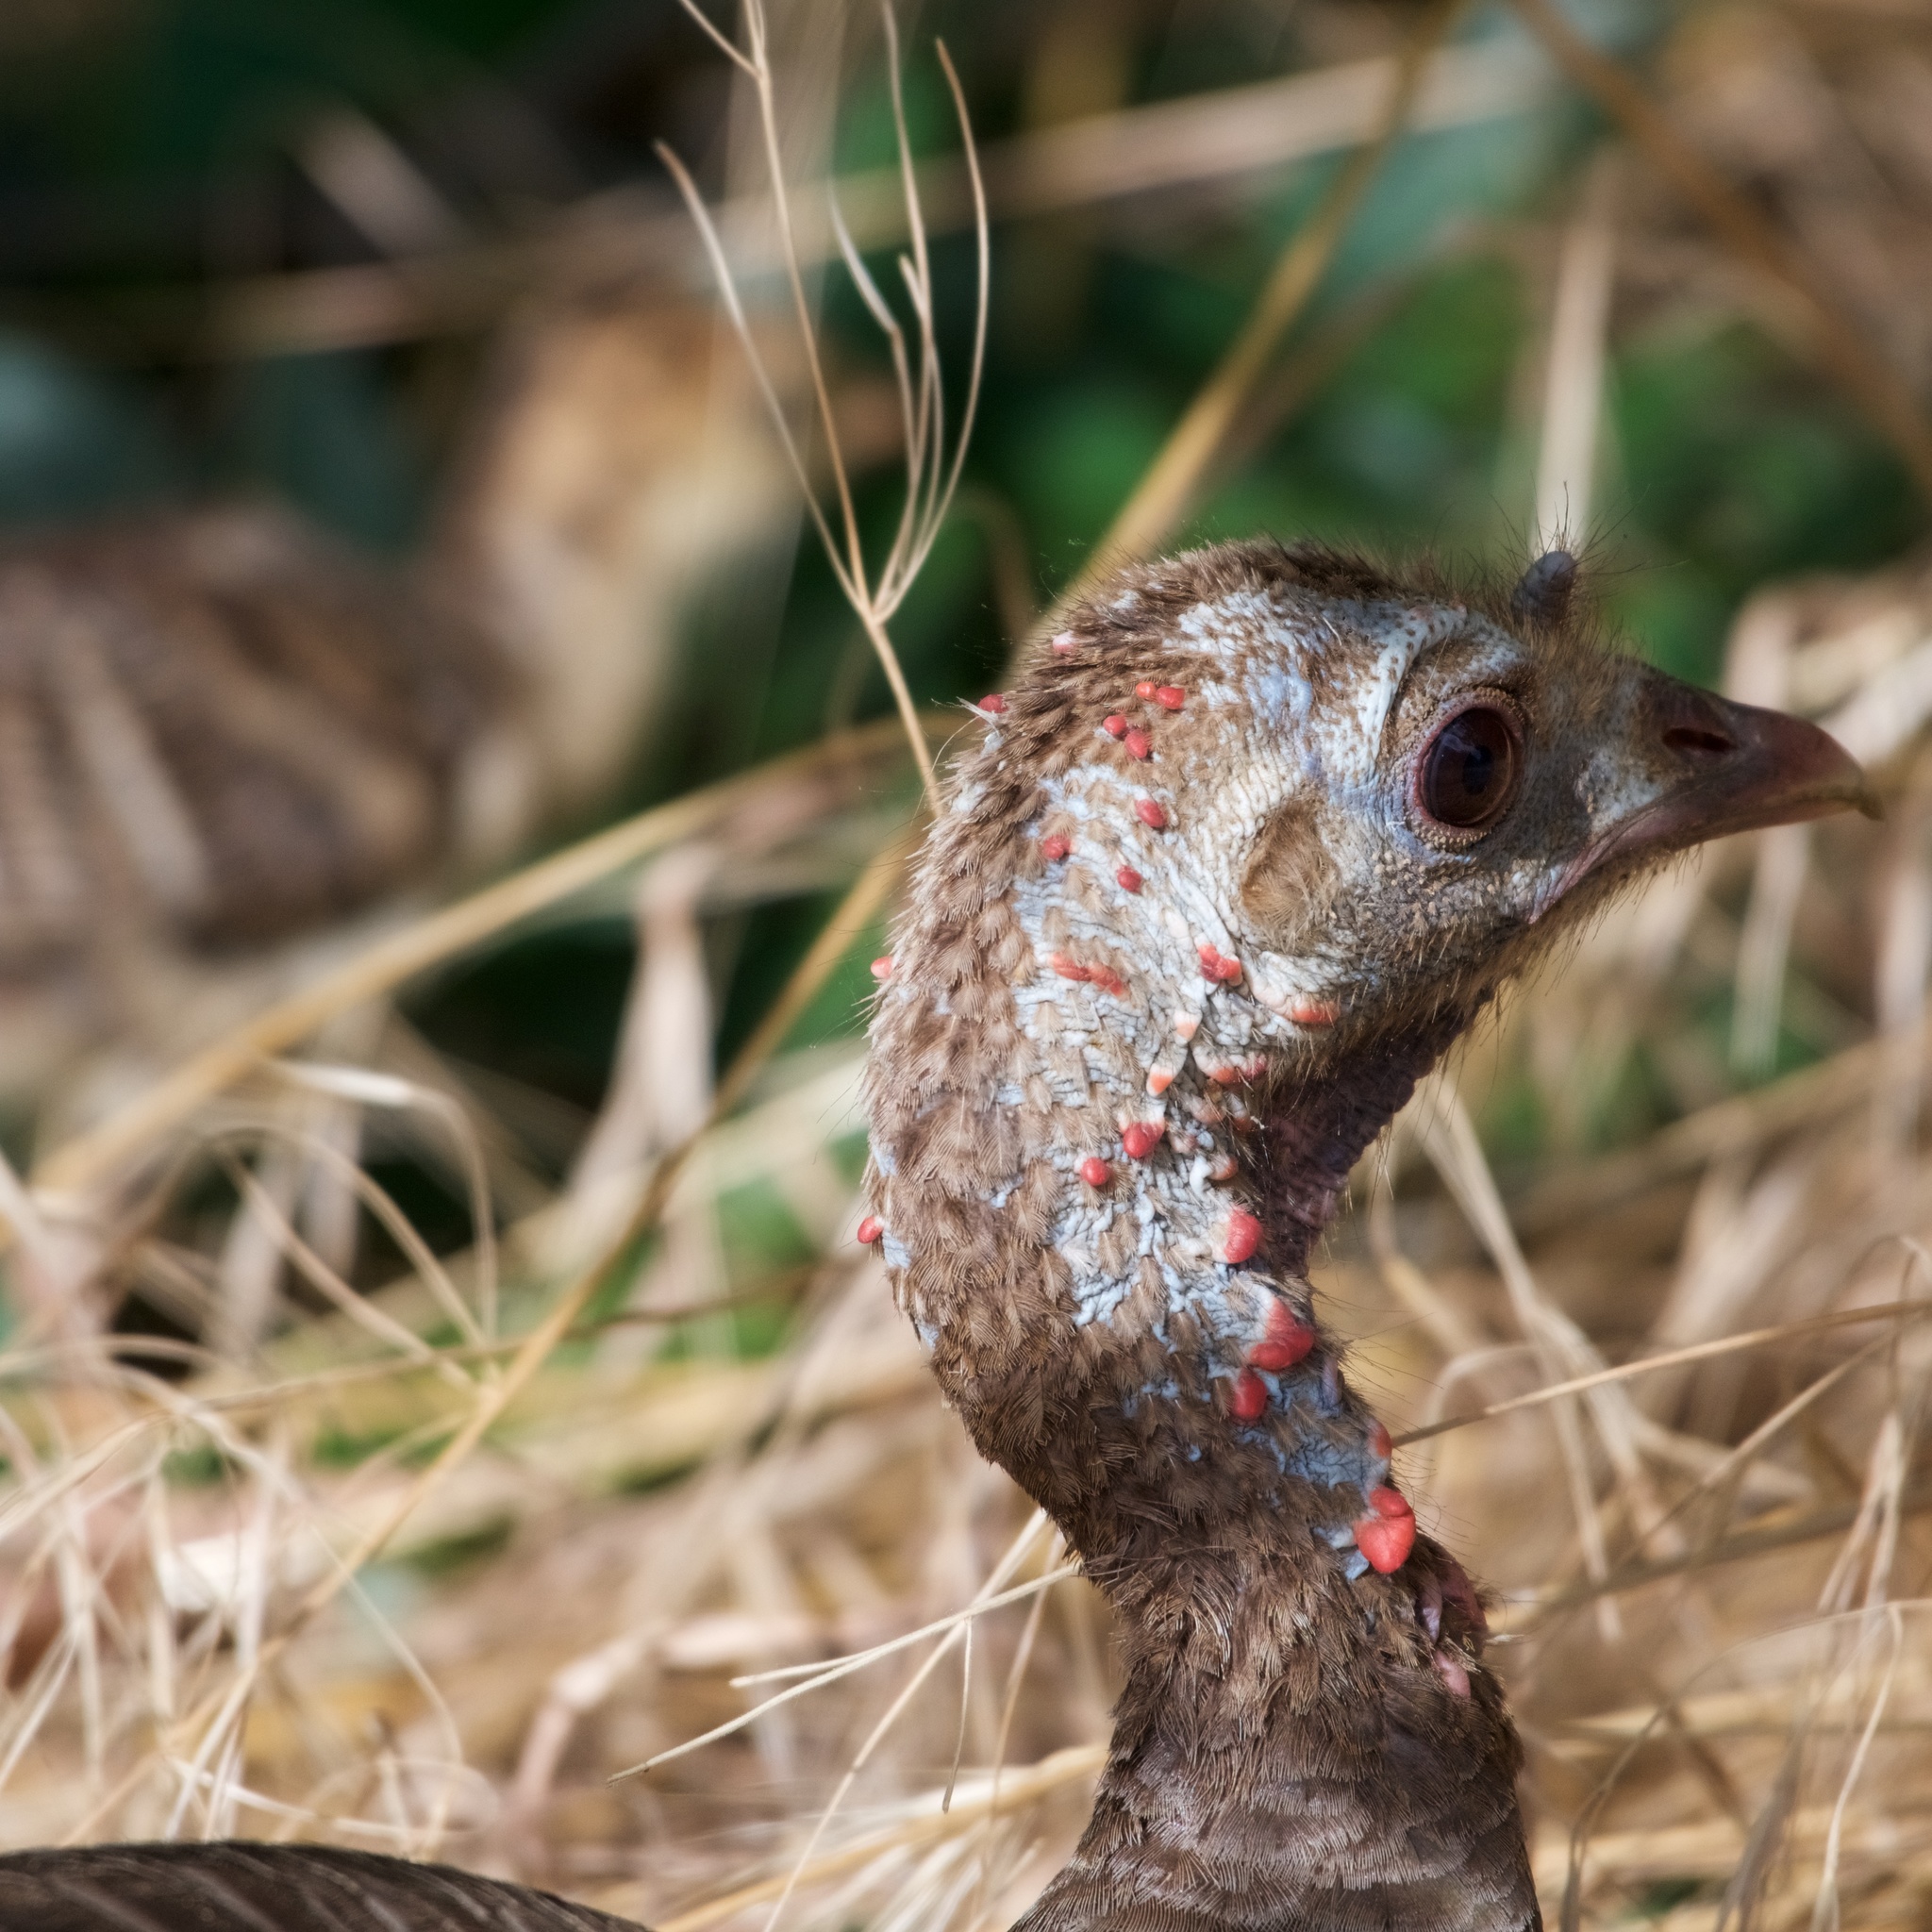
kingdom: Animalia
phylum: Chordata
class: Aves
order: Galliformes
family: Phasianidae
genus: Meleagris
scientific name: Meleagris gallopavo
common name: Wild turkey
